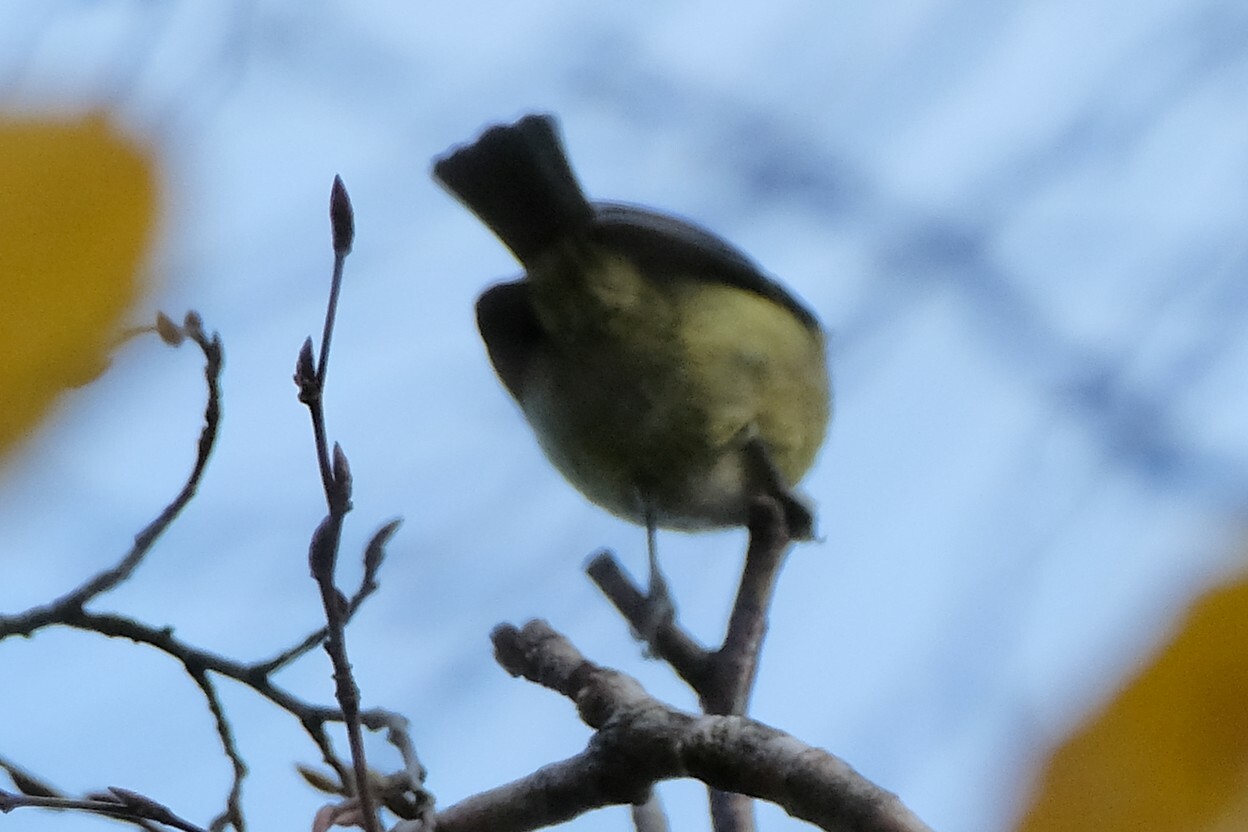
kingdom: Animalia
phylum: Chordata
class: Aves
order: Passeriformes
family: Paridae
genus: Cyanistes
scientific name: Cyanistes caeruleus
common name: Eurasian blue tit
